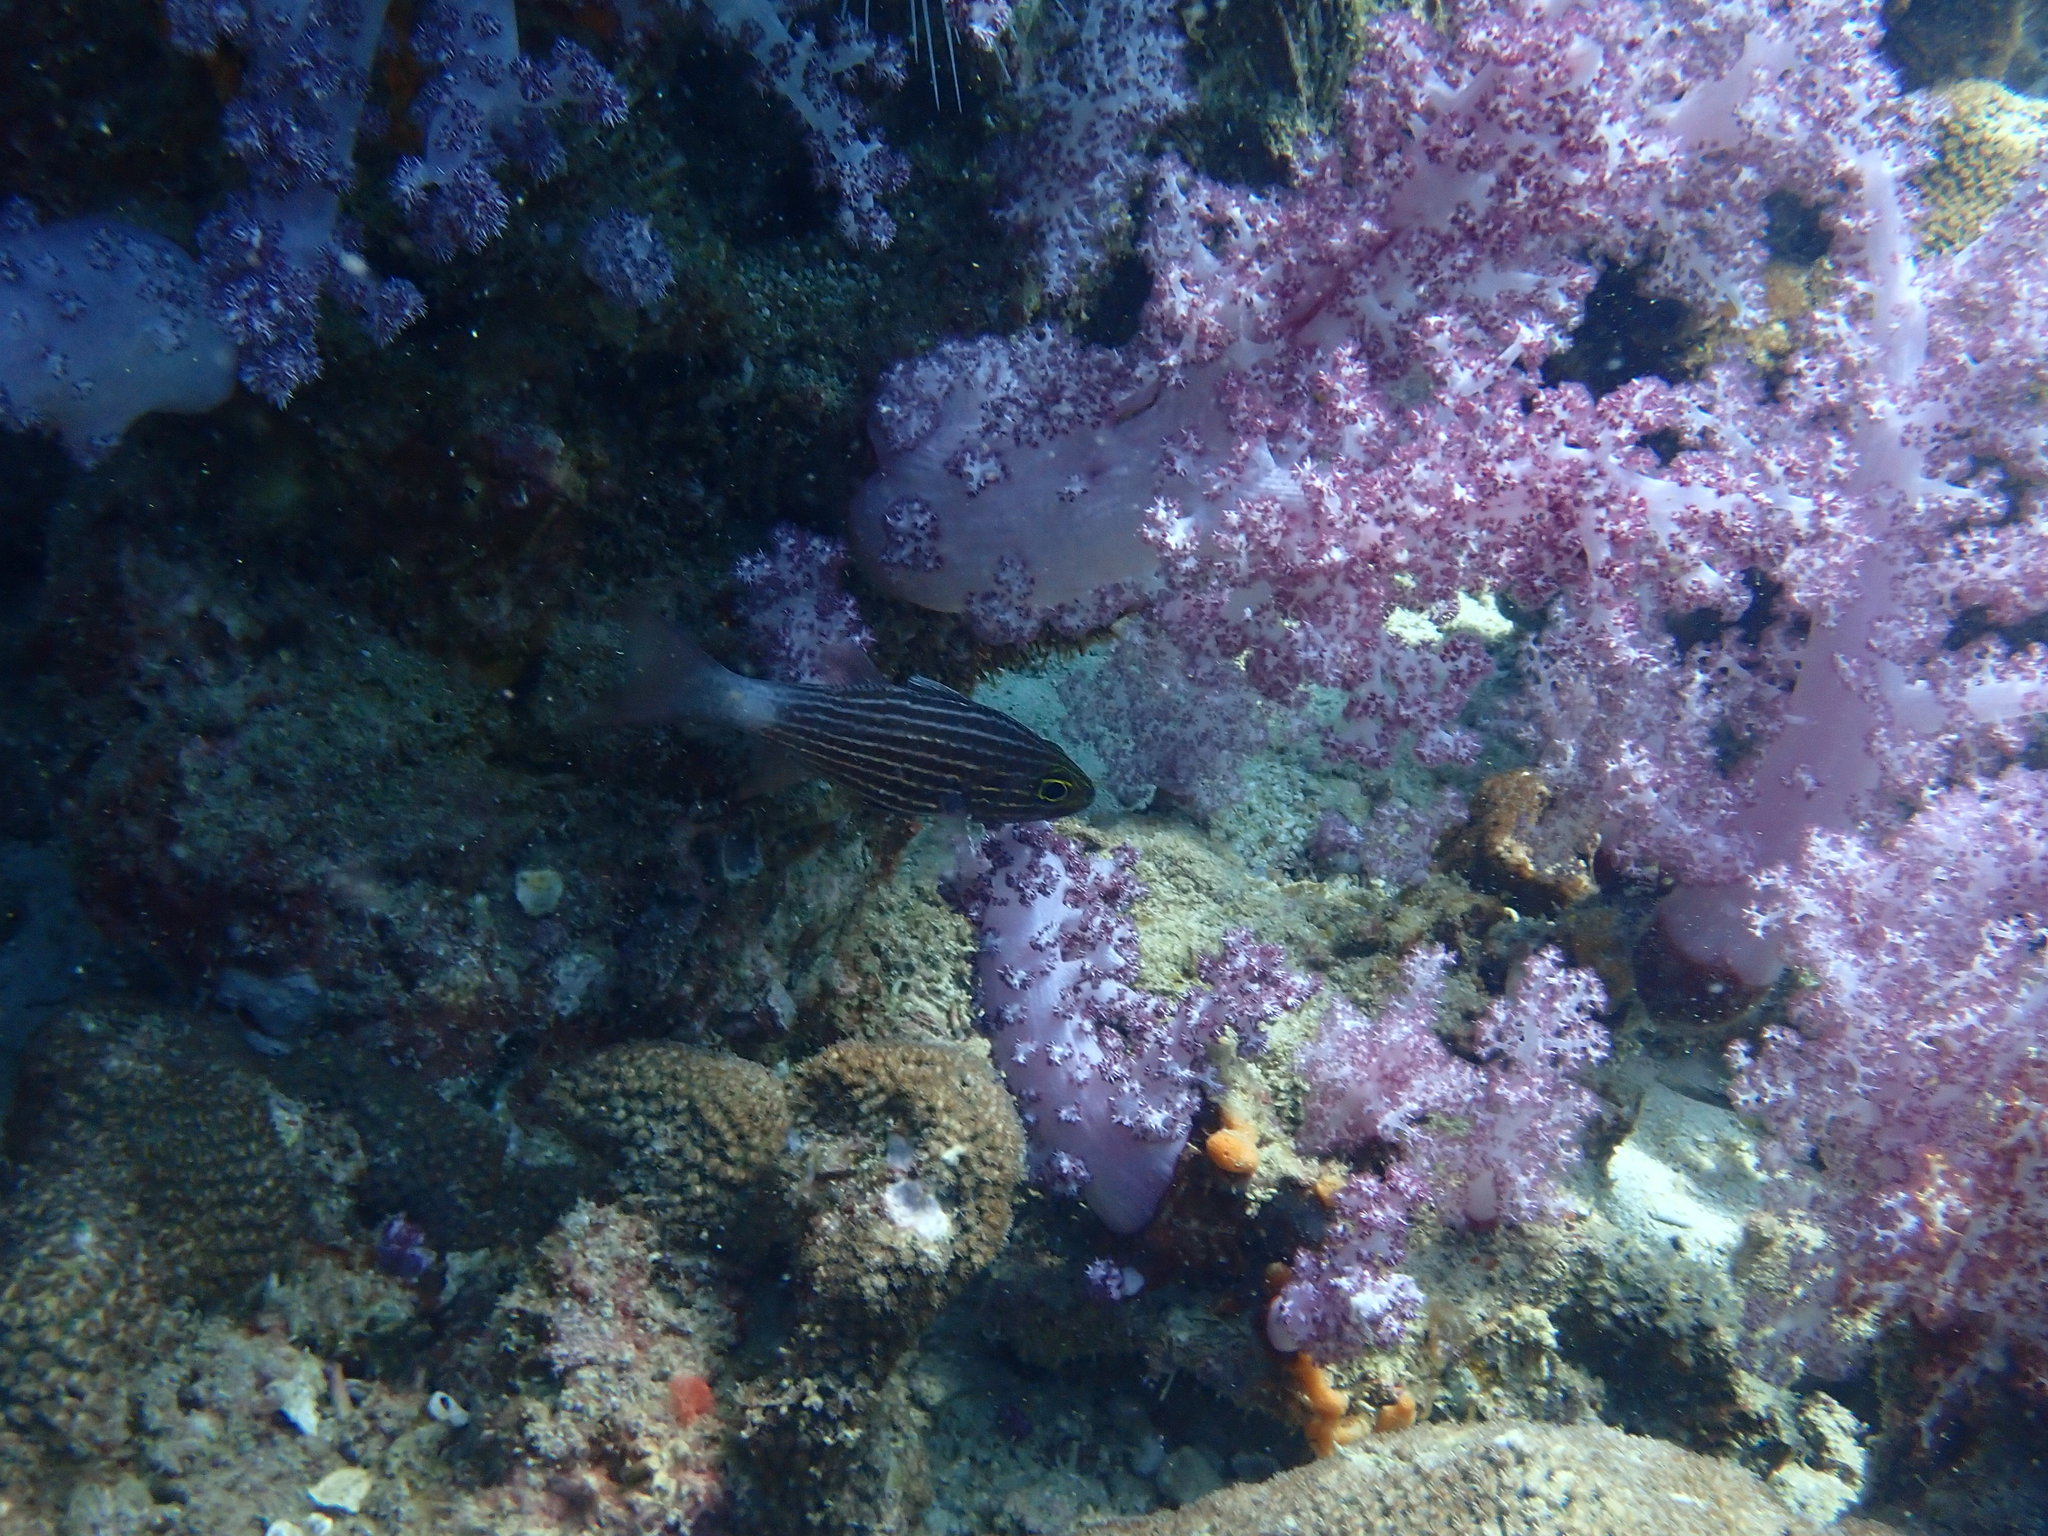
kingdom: Animalia
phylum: Chordata
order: Perciformes
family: Apogonidae
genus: Cheilodipterus
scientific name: Cheilodipterus macrodon
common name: Eight-lined cardinalfish
